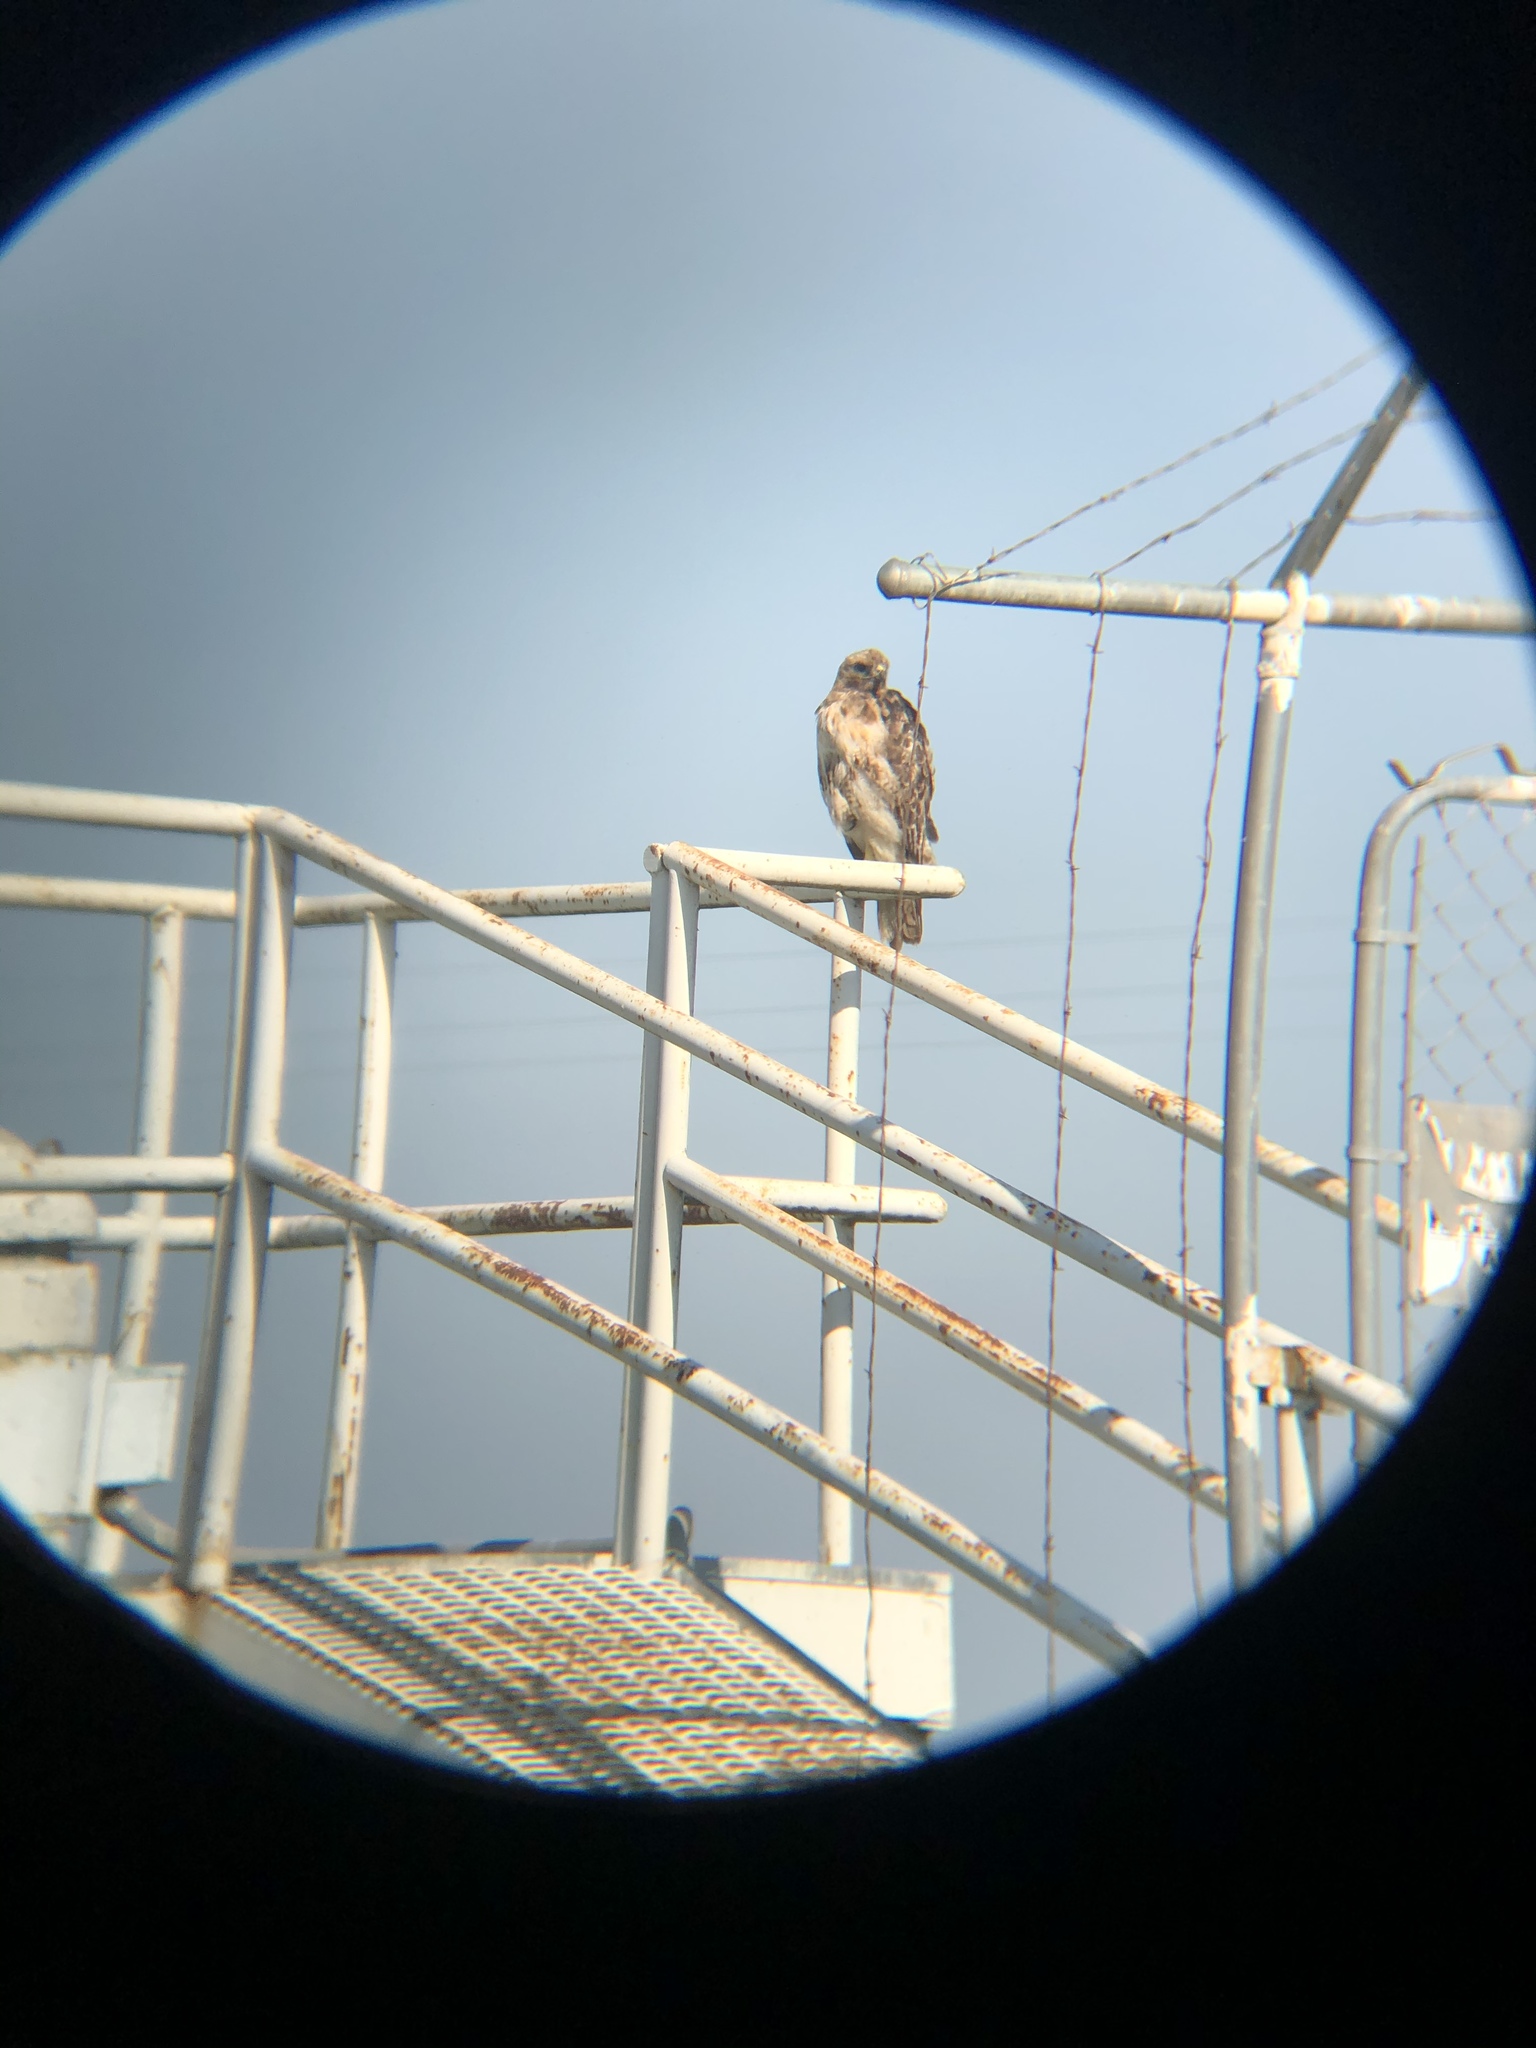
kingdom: Animalia
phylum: Chordata
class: Aves
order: Accipitriformes
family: Accipitridae
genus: Buteo
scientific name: Buteo jamaicensis
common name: Red-tailed hawk
